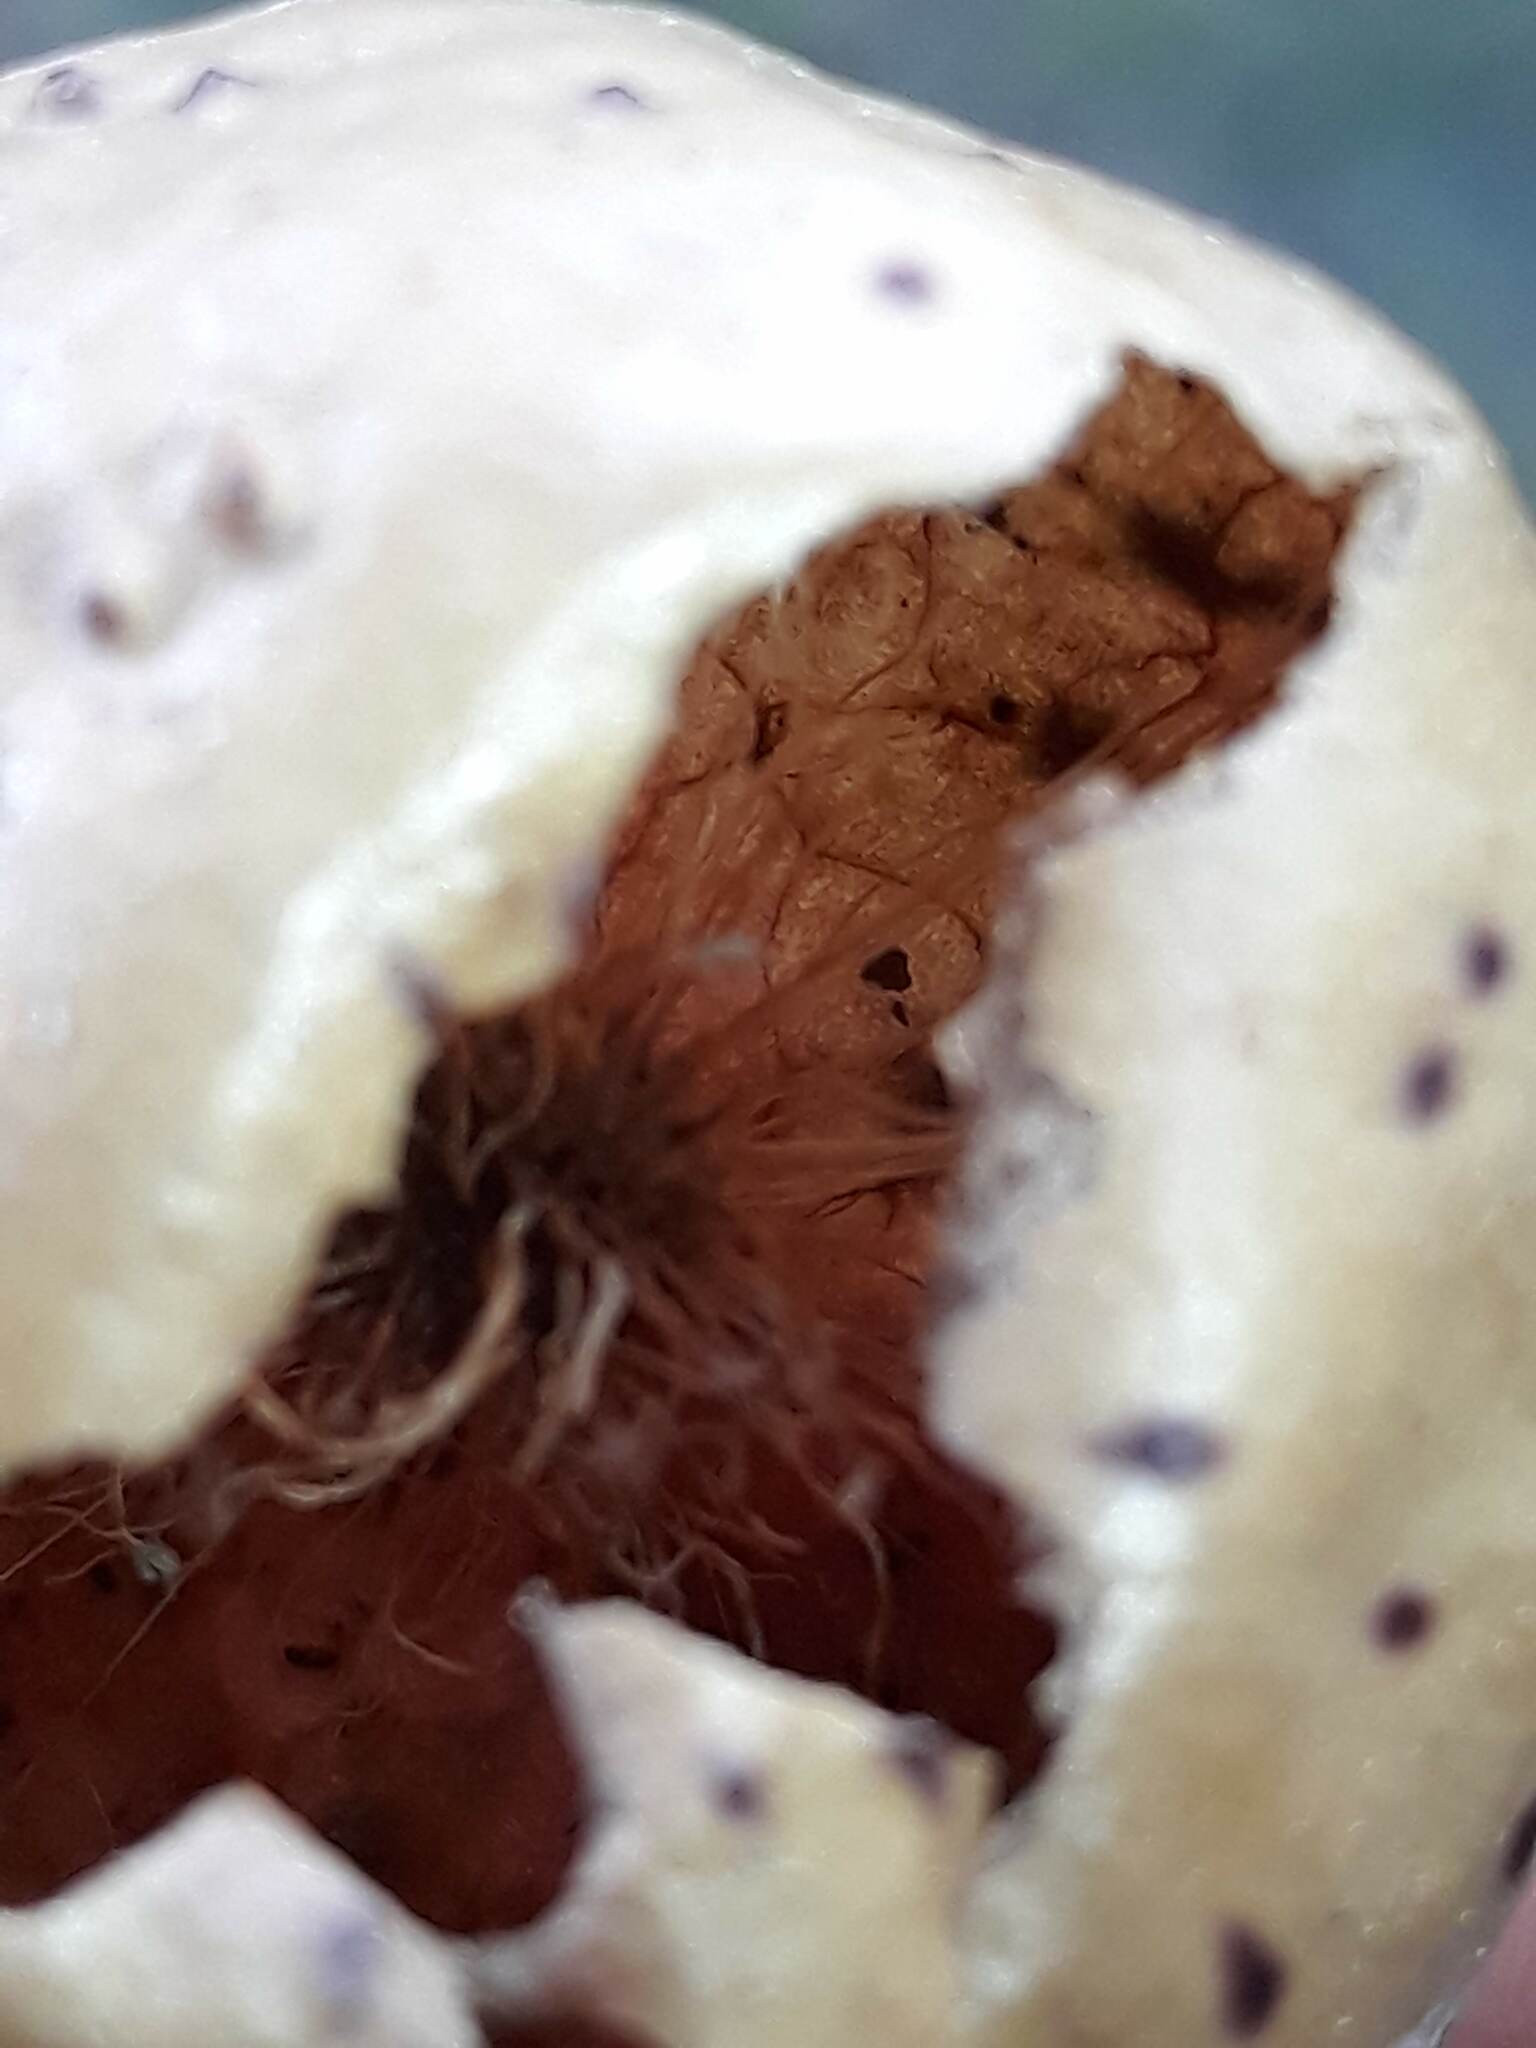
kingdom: Animalia
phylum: Arthropoda
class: Insecta
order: Hymenoptera
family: Cynipidae
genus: Amphibolips
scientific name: Amphibolips
